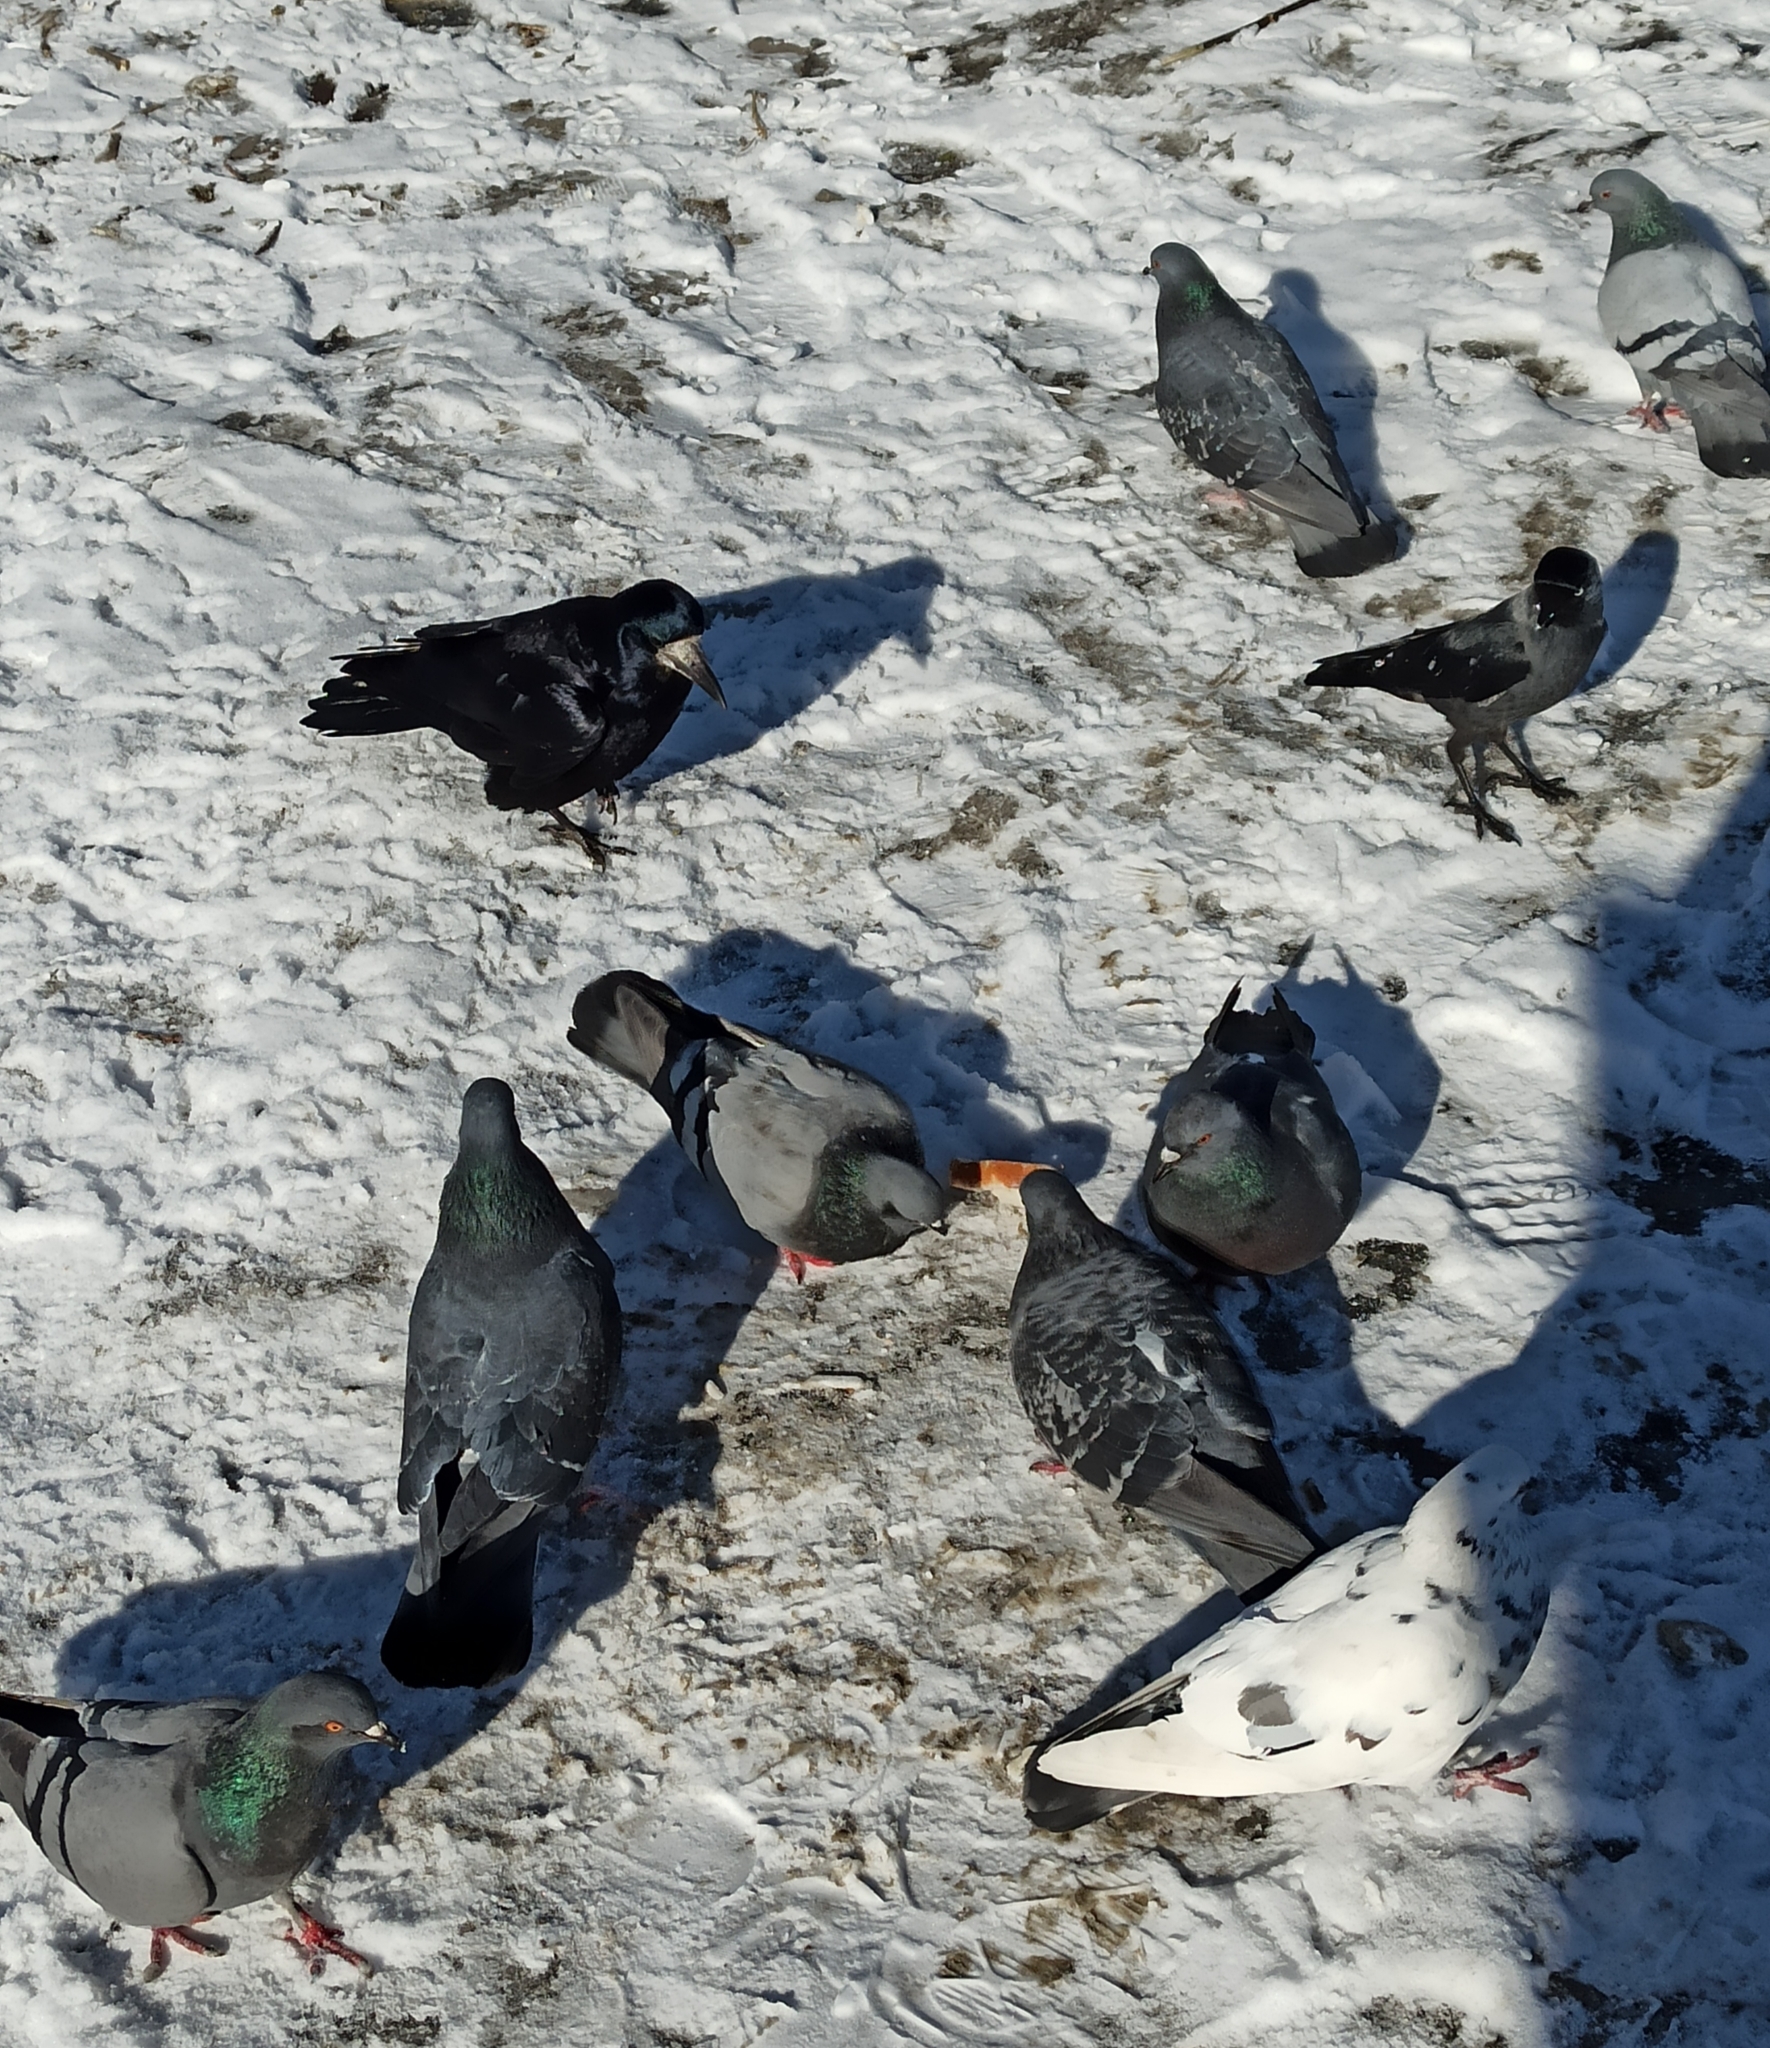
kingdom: Animalia
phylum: Chordata
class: Aves
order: Passeriformes
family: Corvidae
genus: Corvus
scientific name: Corvus frugilegus
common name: Rook
